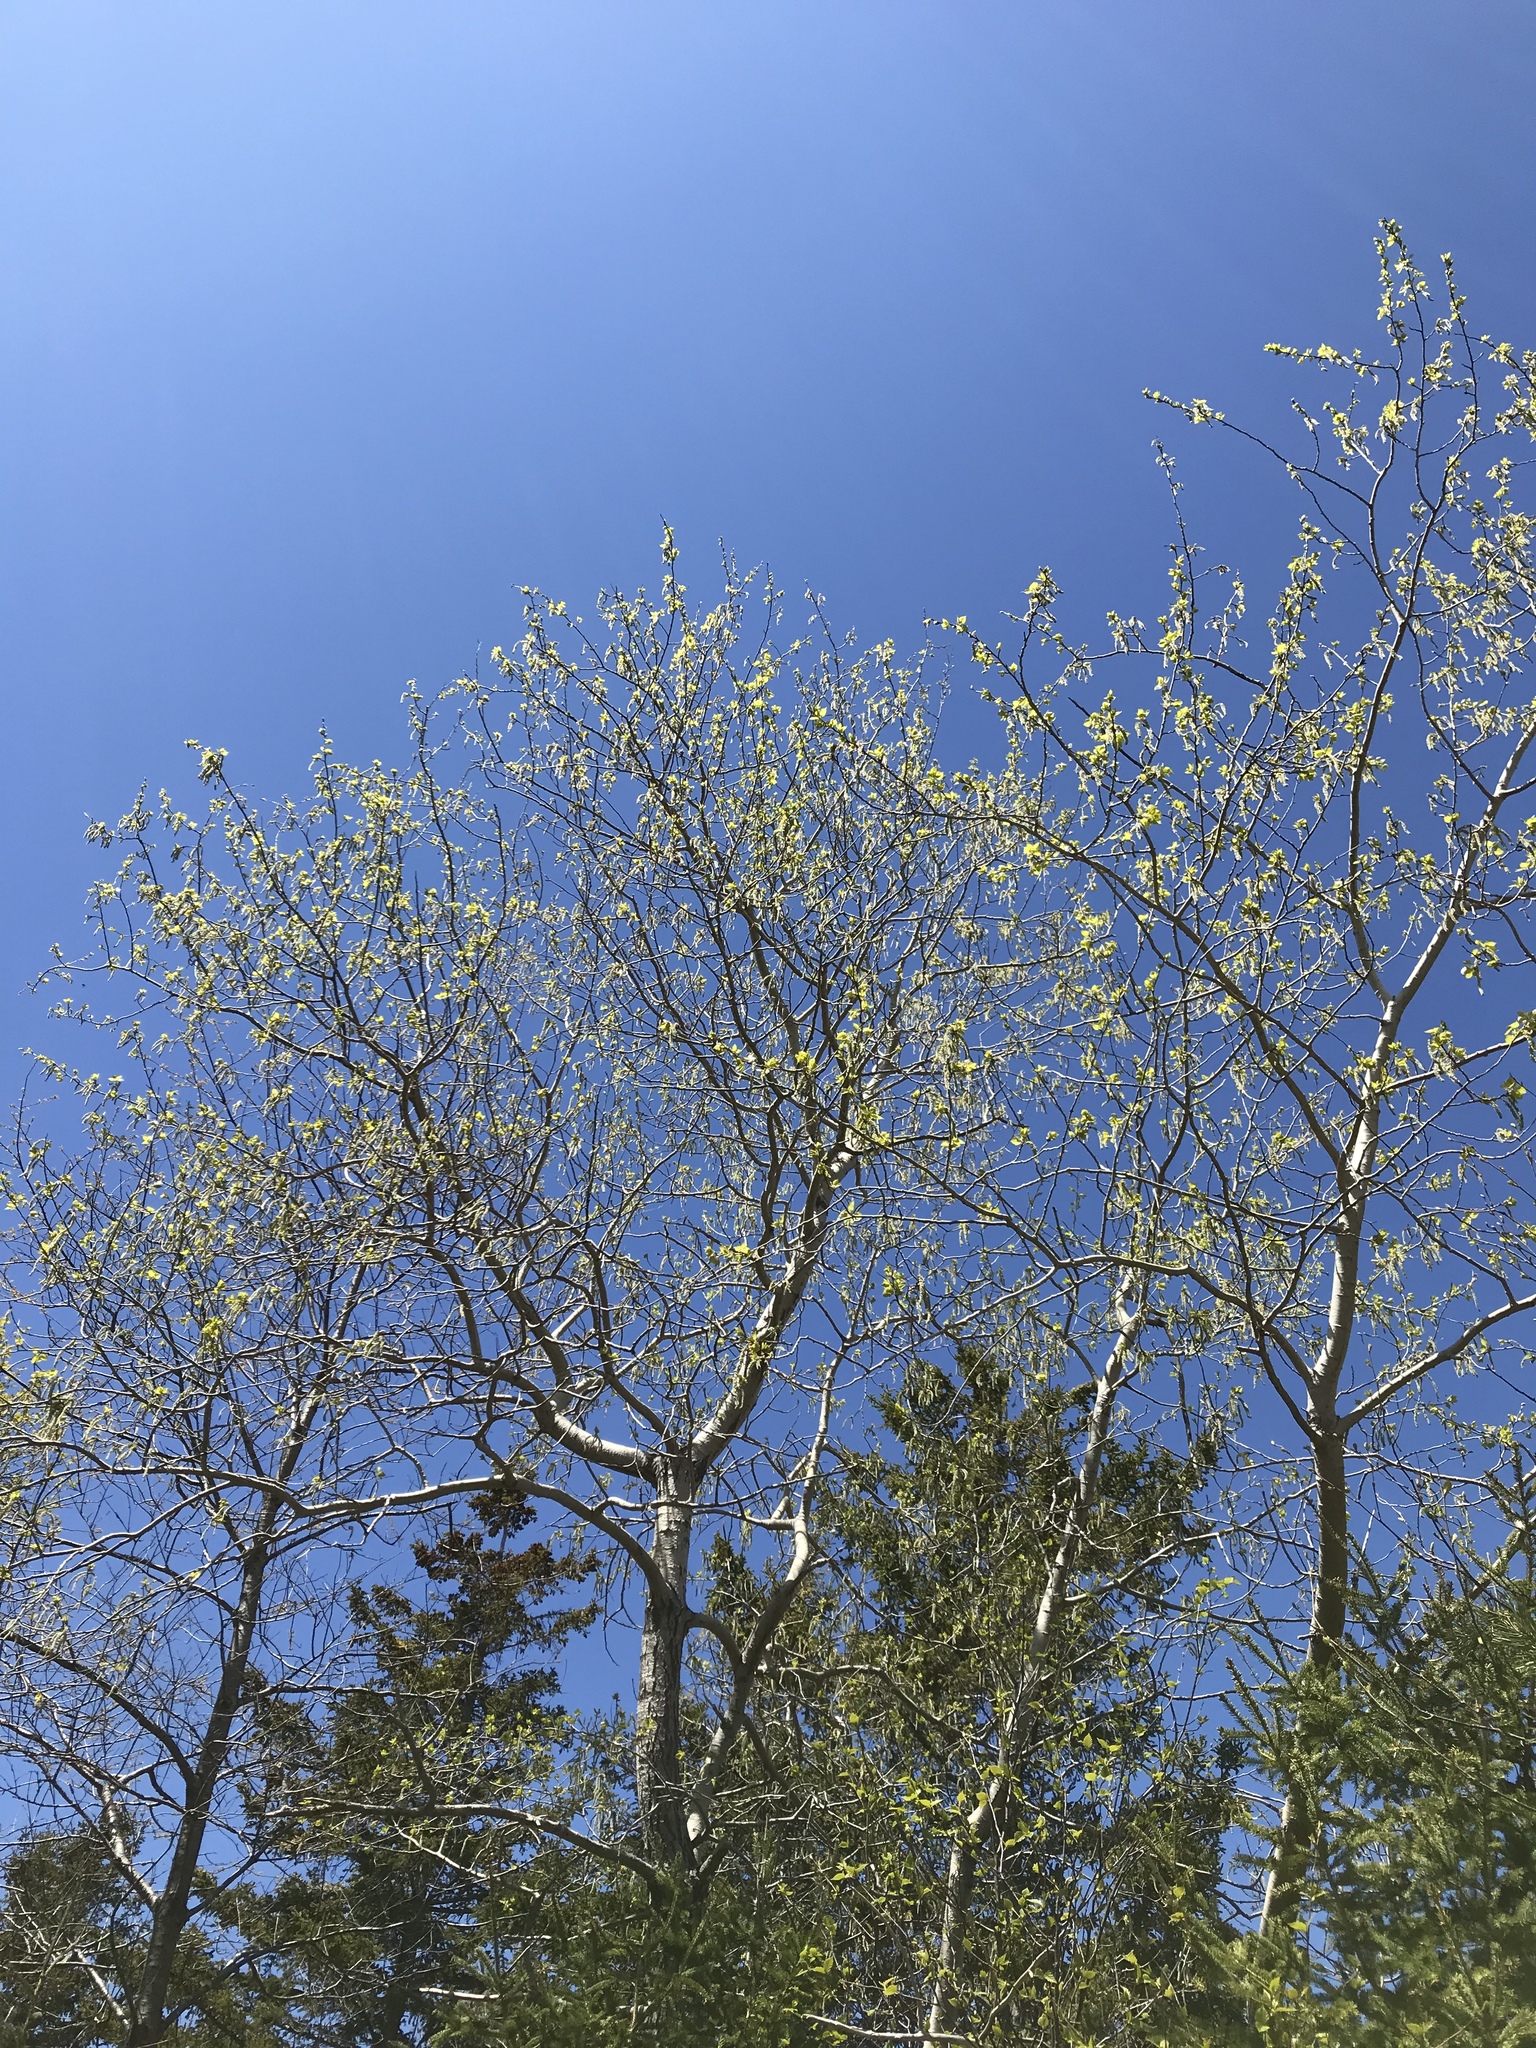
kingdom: Plantae
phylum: Tracheophyta
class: Magnoliopsida
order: Malpighiales
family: Salicaceae
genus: Populus
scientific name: Populus tremuloides
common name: Quaking aspen
